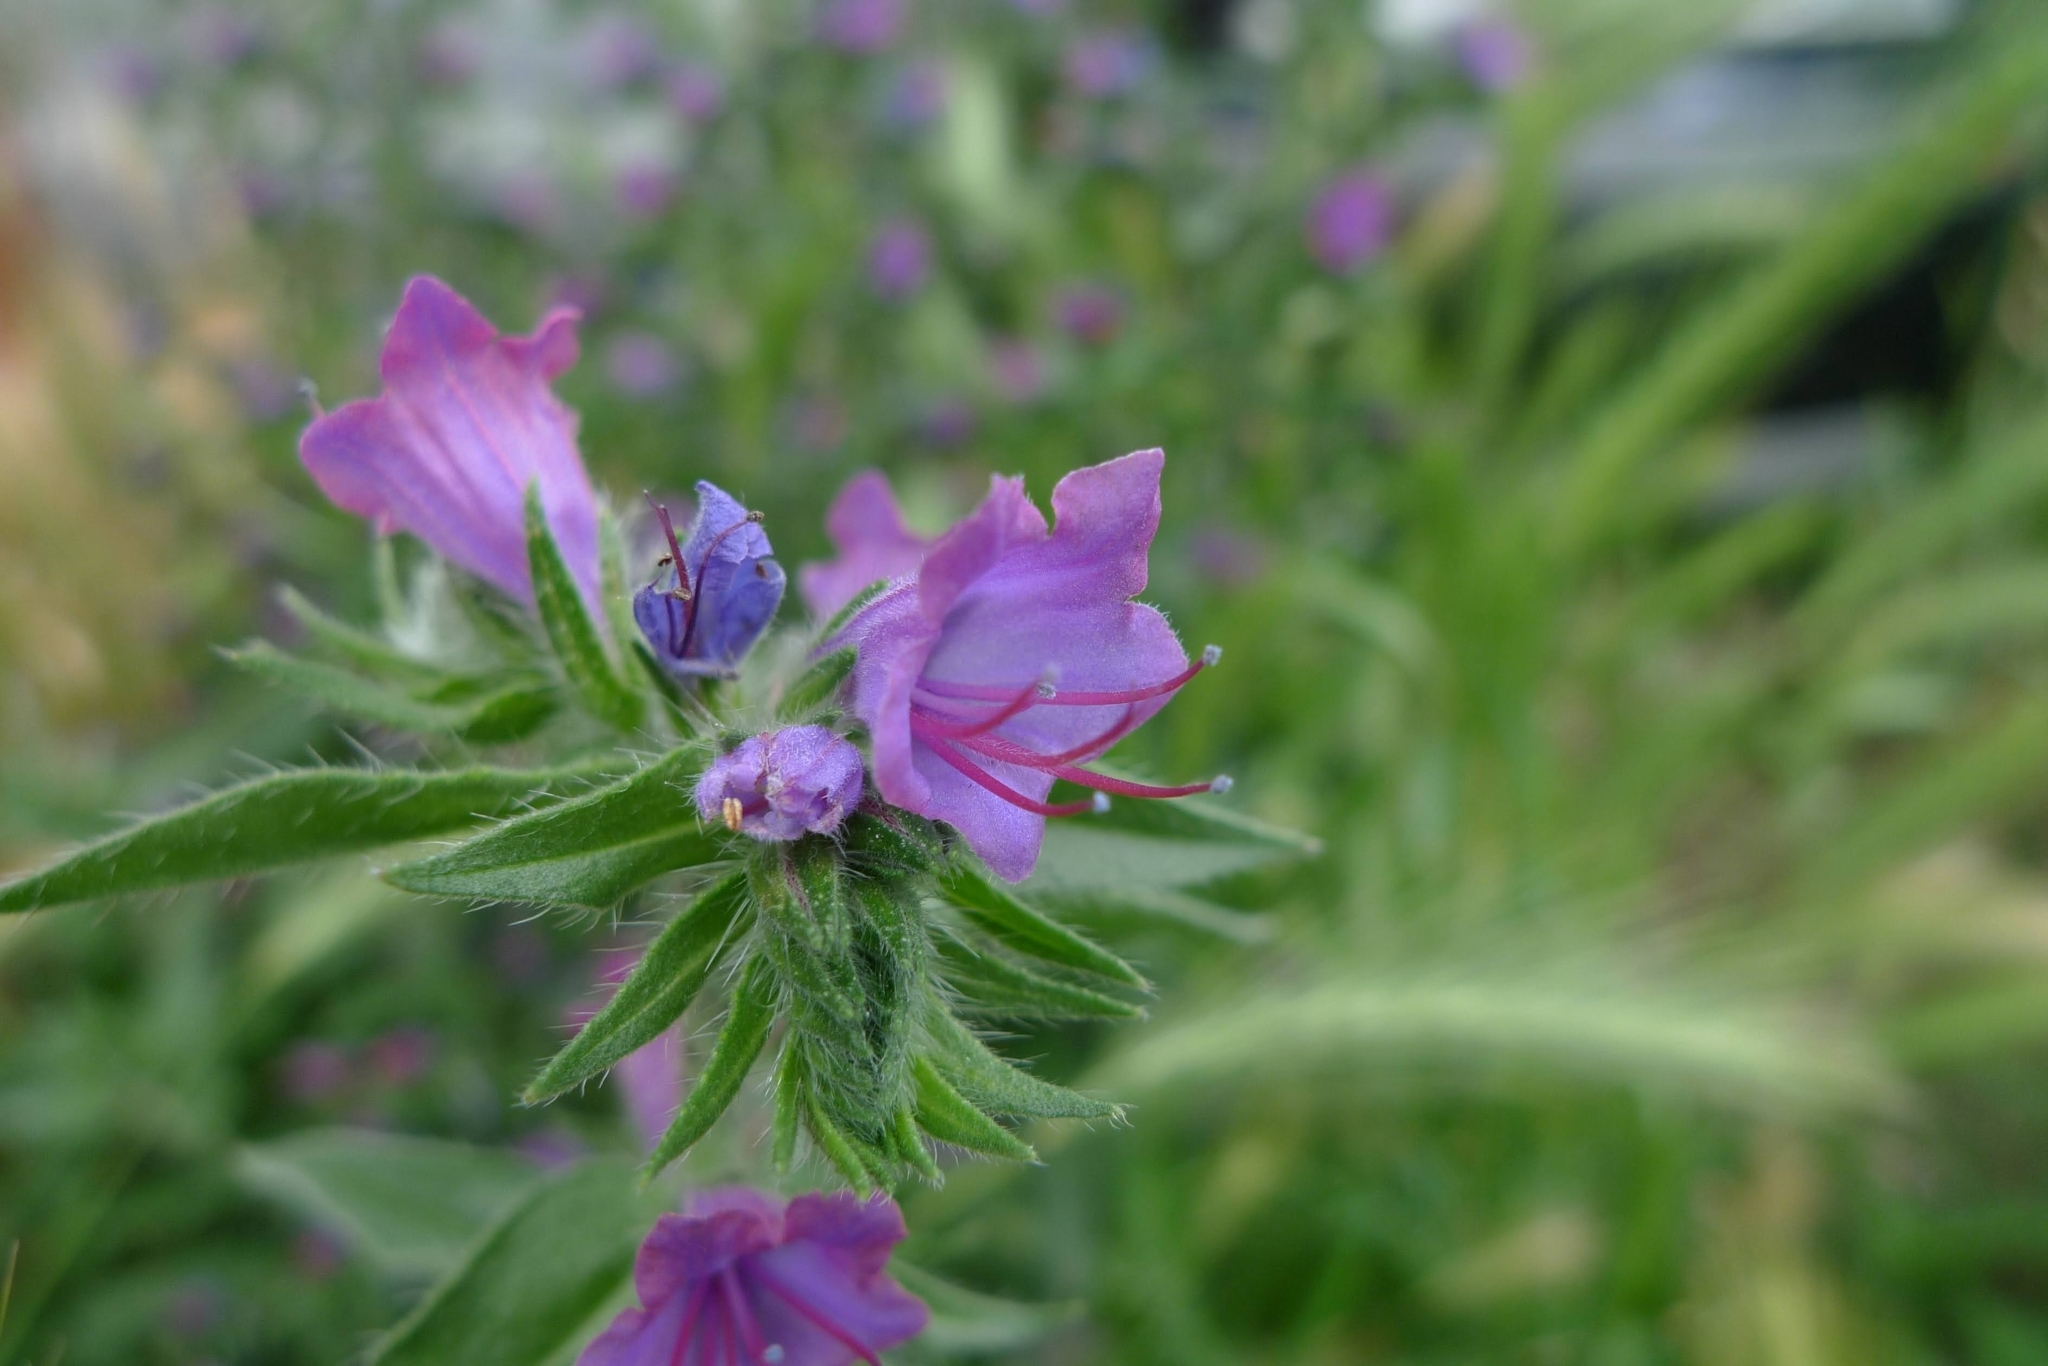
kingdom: Plantae
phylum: Tracheophyta
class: Magnoliopsida
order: Boraginales
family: Boraginaceae
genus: Echium
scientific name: Echium vulgare
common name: Common viper's bugloss
